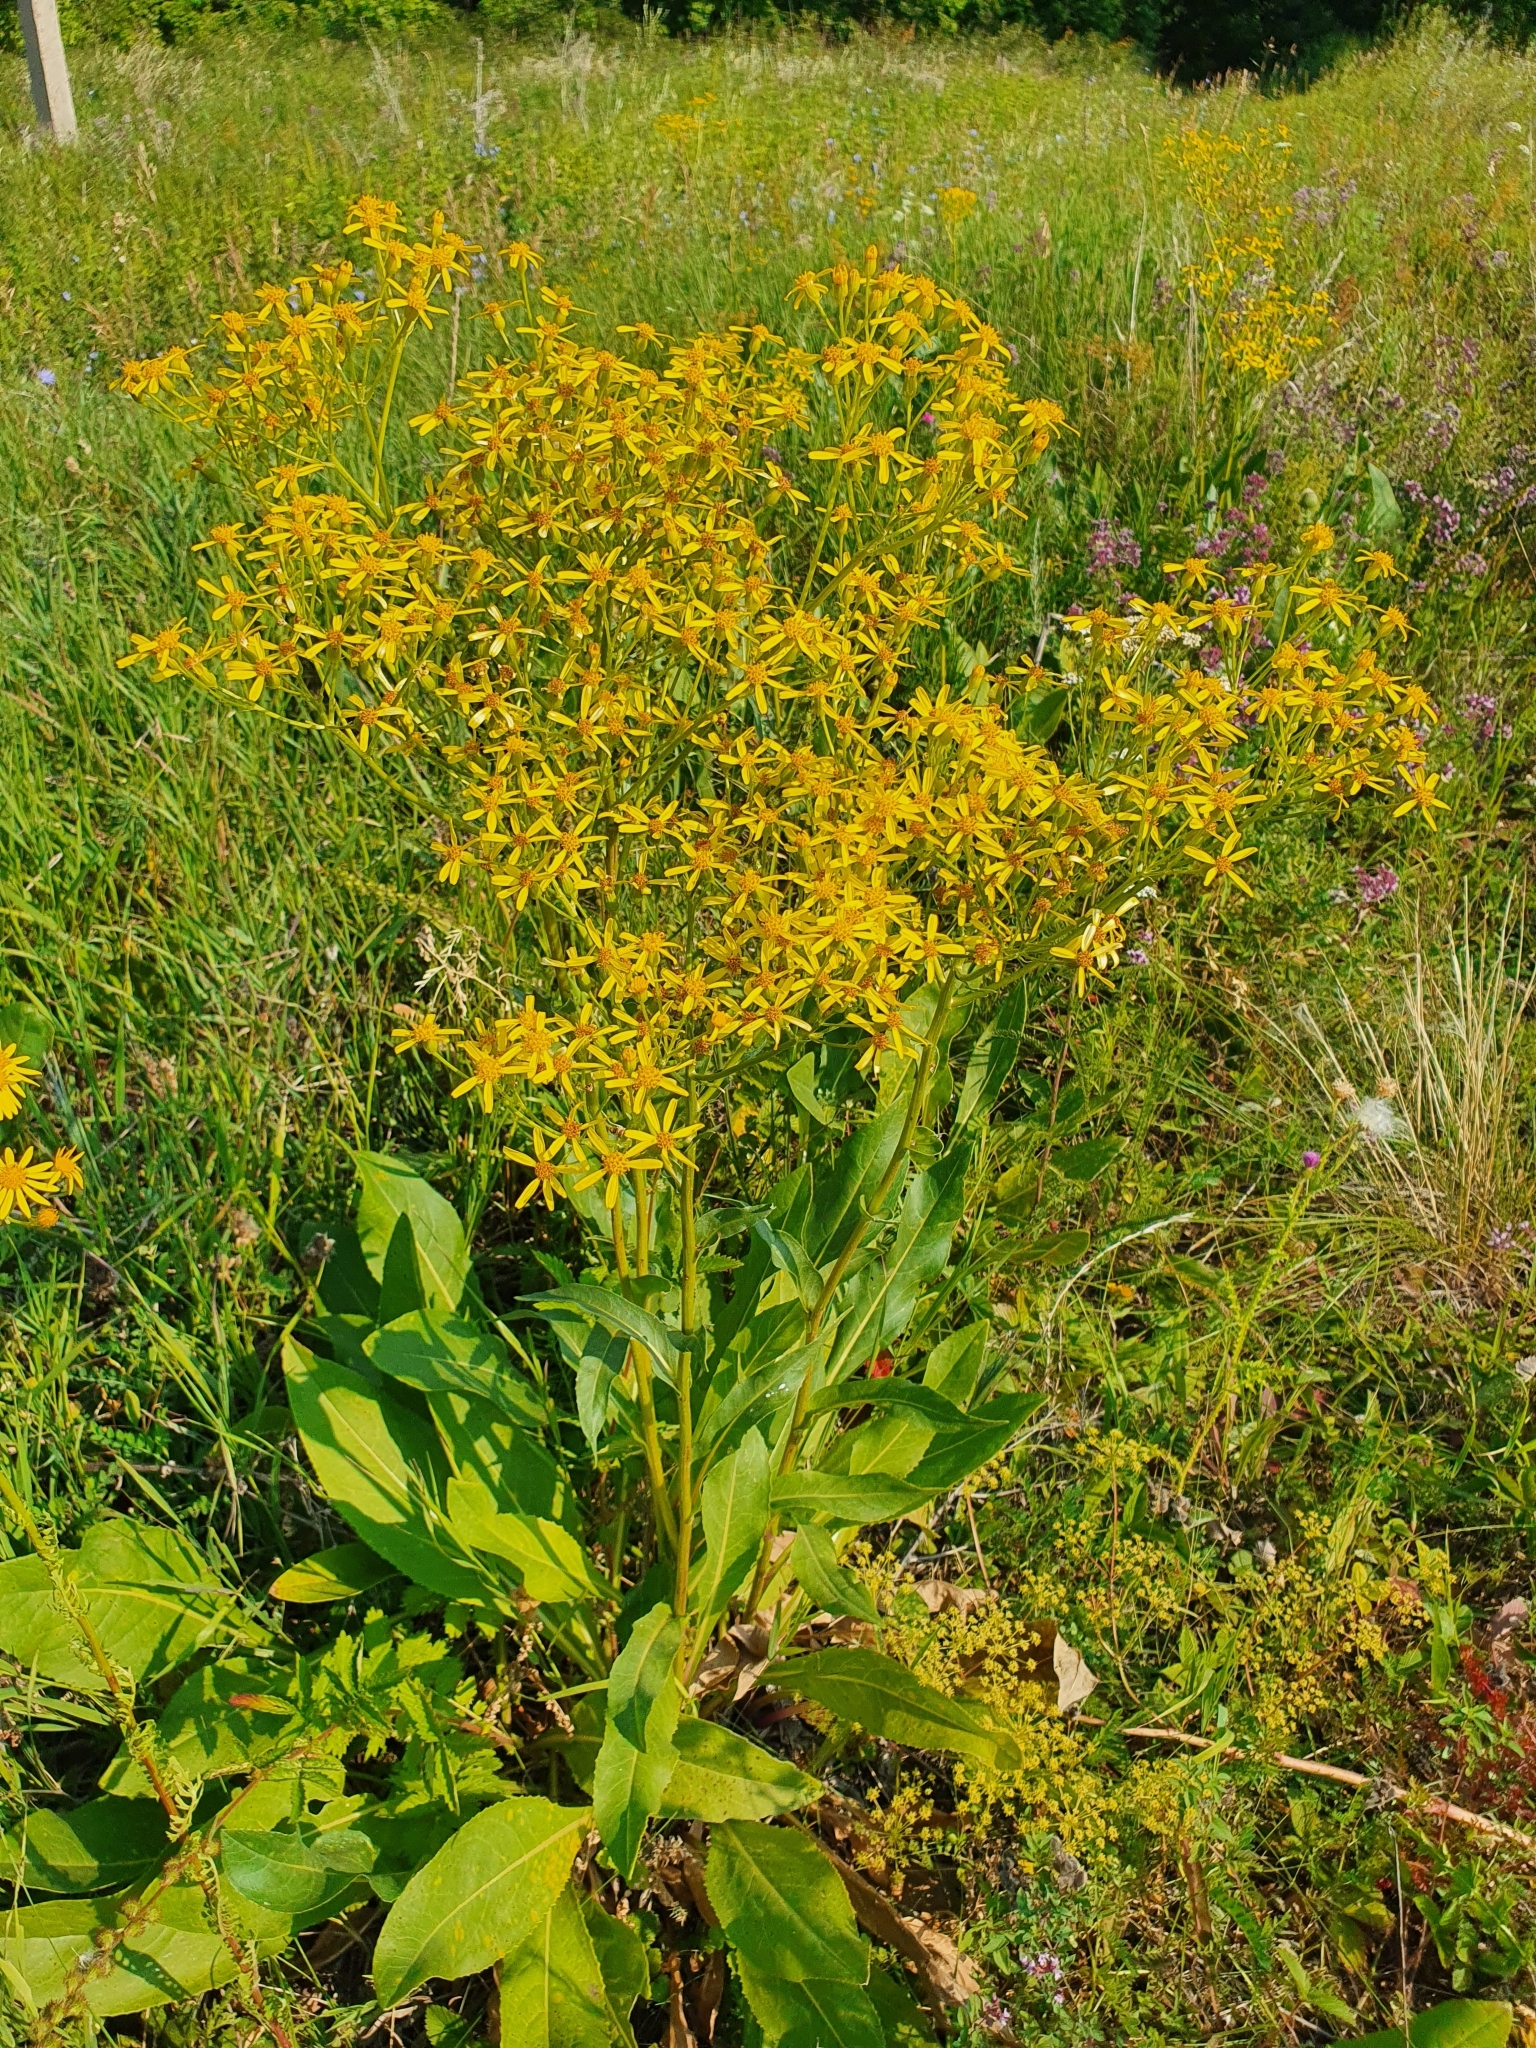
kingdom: Plantae
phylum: Tracheophyta
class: Magnoliopsida
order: Asterales
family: Asteraceae
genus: Senecio
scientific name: Senecio doria
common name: Golden ragwort
